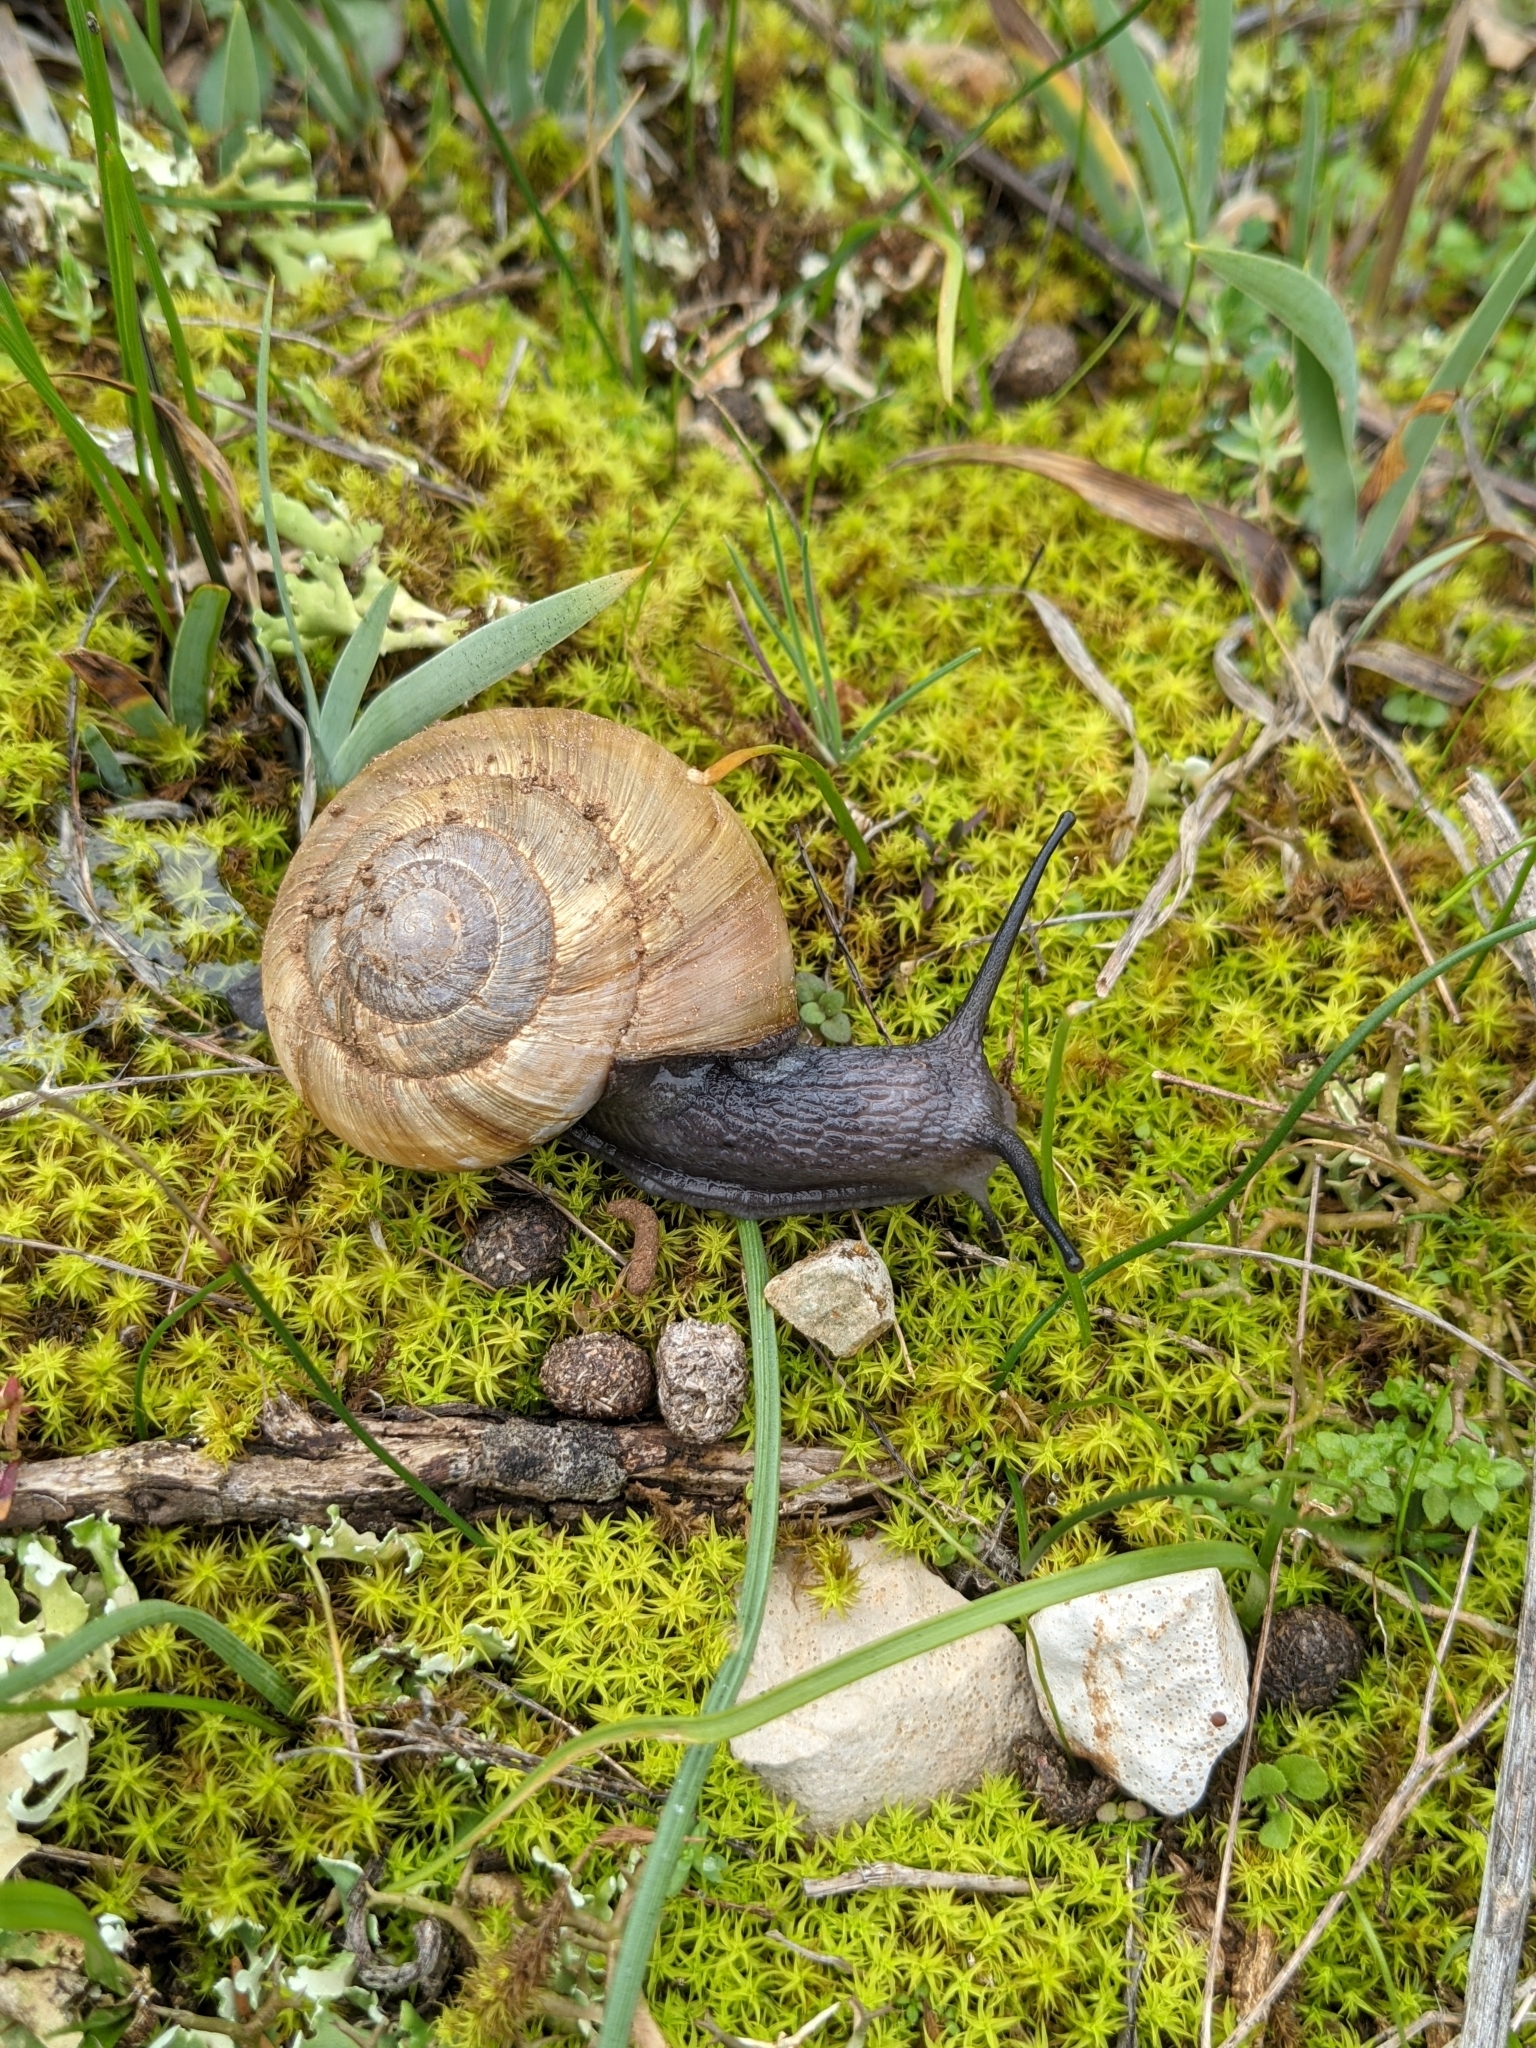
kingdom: Animalia
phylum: Mollusca
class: Gastropoda
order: Stylommatophora
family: Zonitidae
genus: Zonites
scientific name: Zonites algirus
